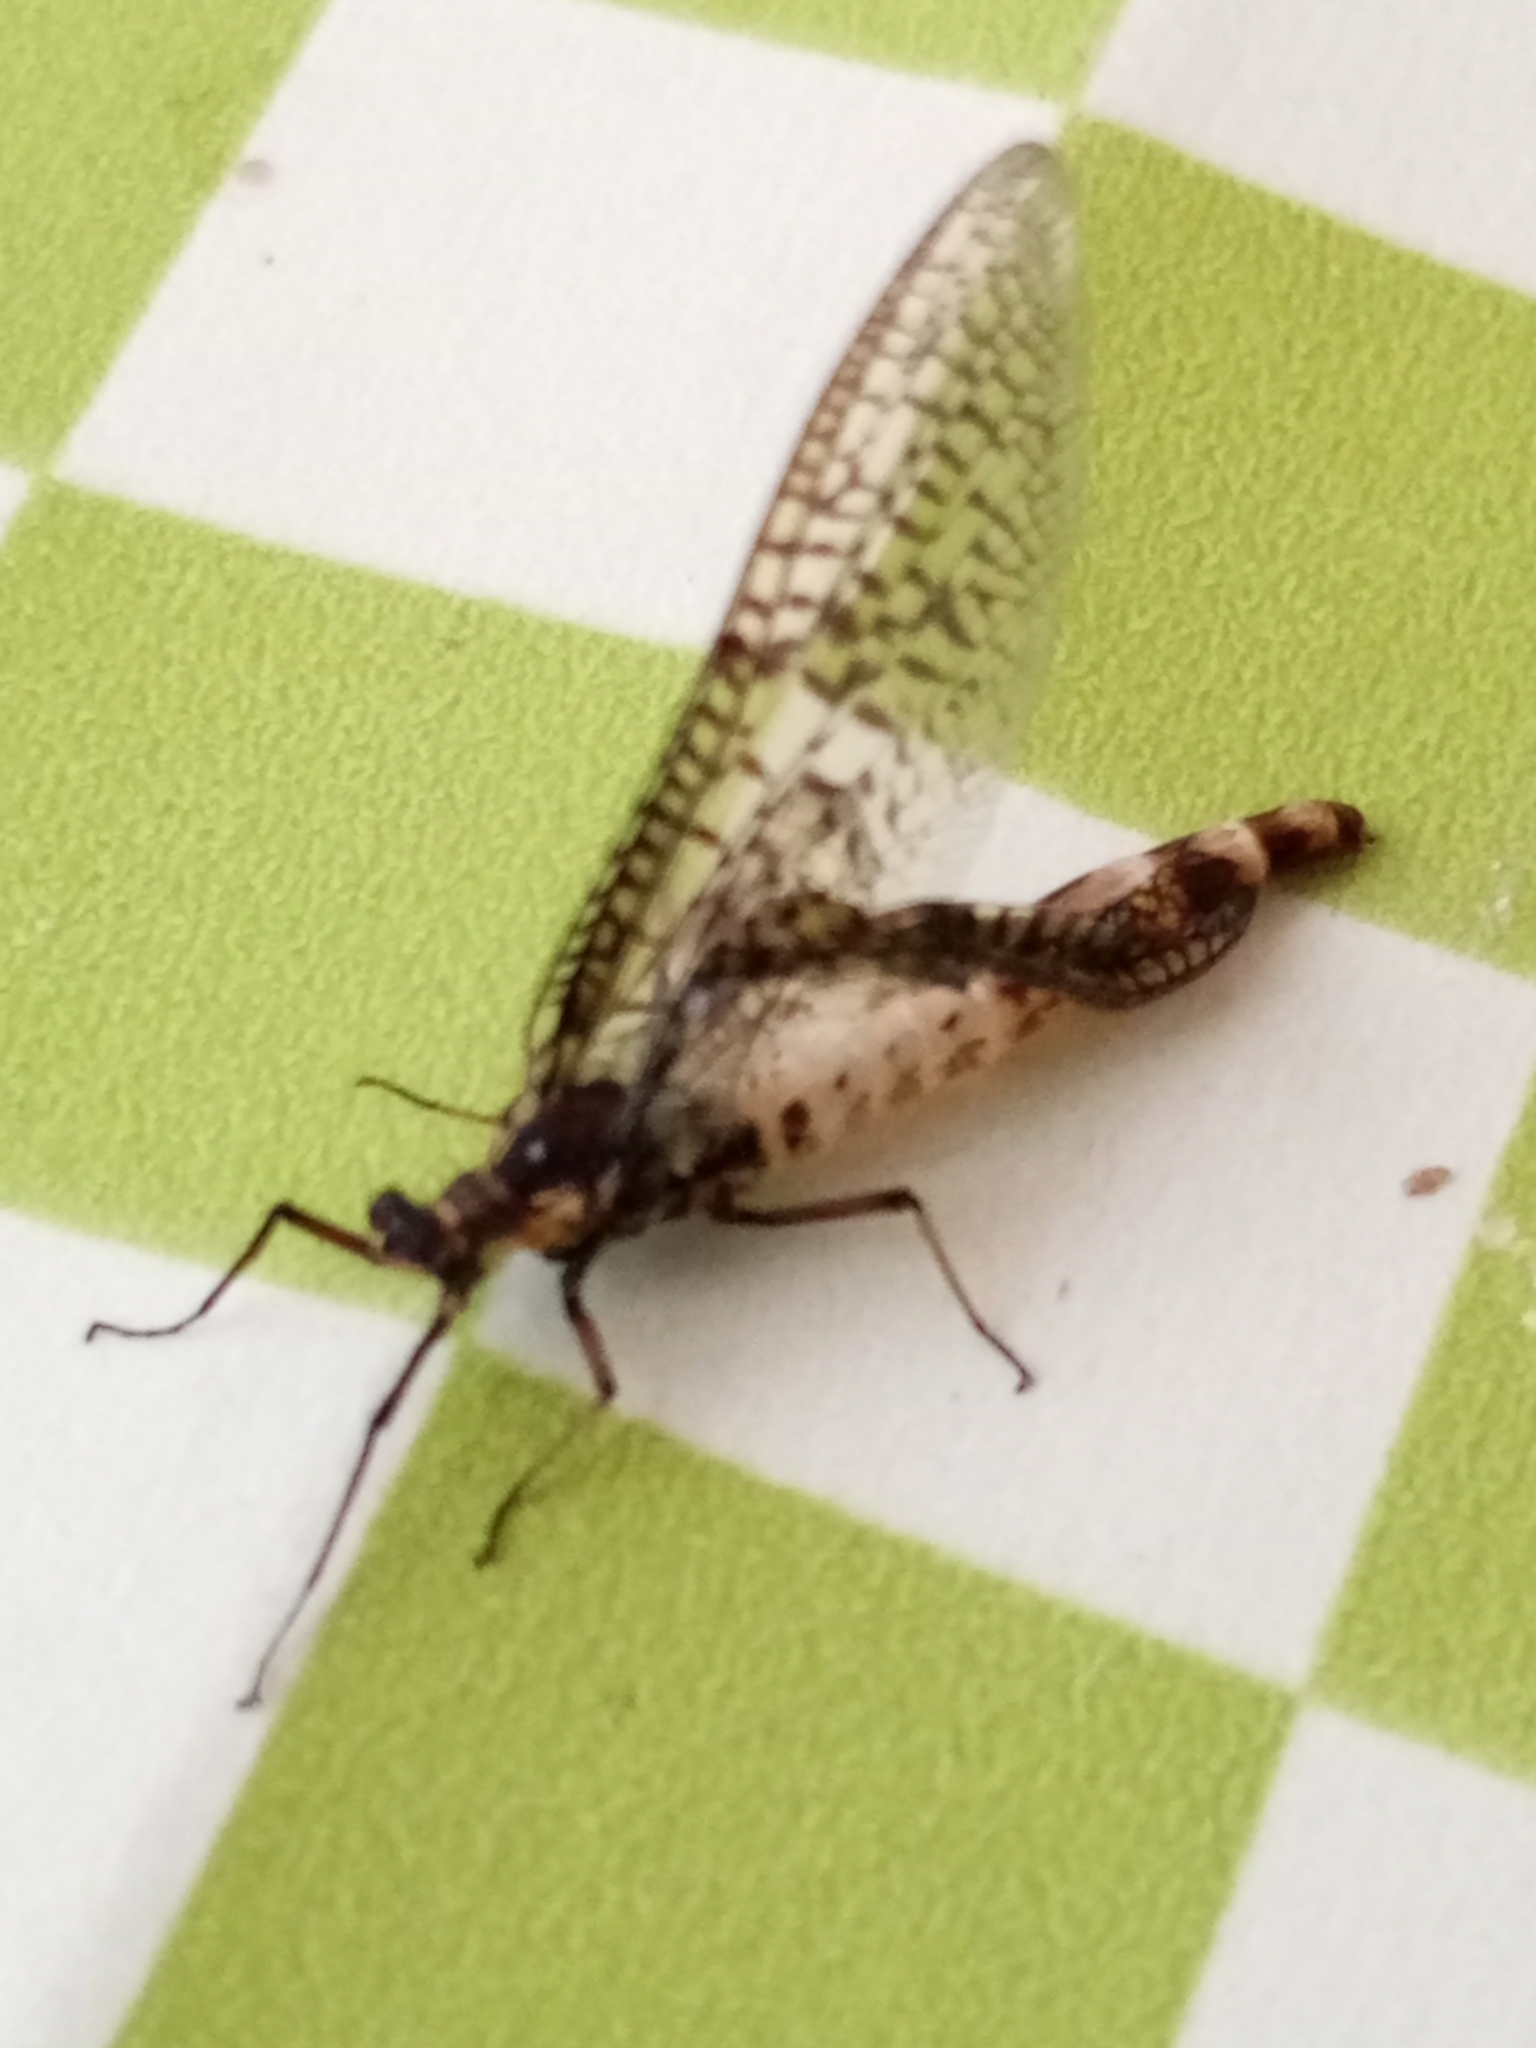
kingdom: Animalia
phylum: Arthropoda
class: Insecta
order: Ephemeroptera
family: Ephemeridae
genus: Ephemera
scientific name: Ephemera danica
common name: Green dun
